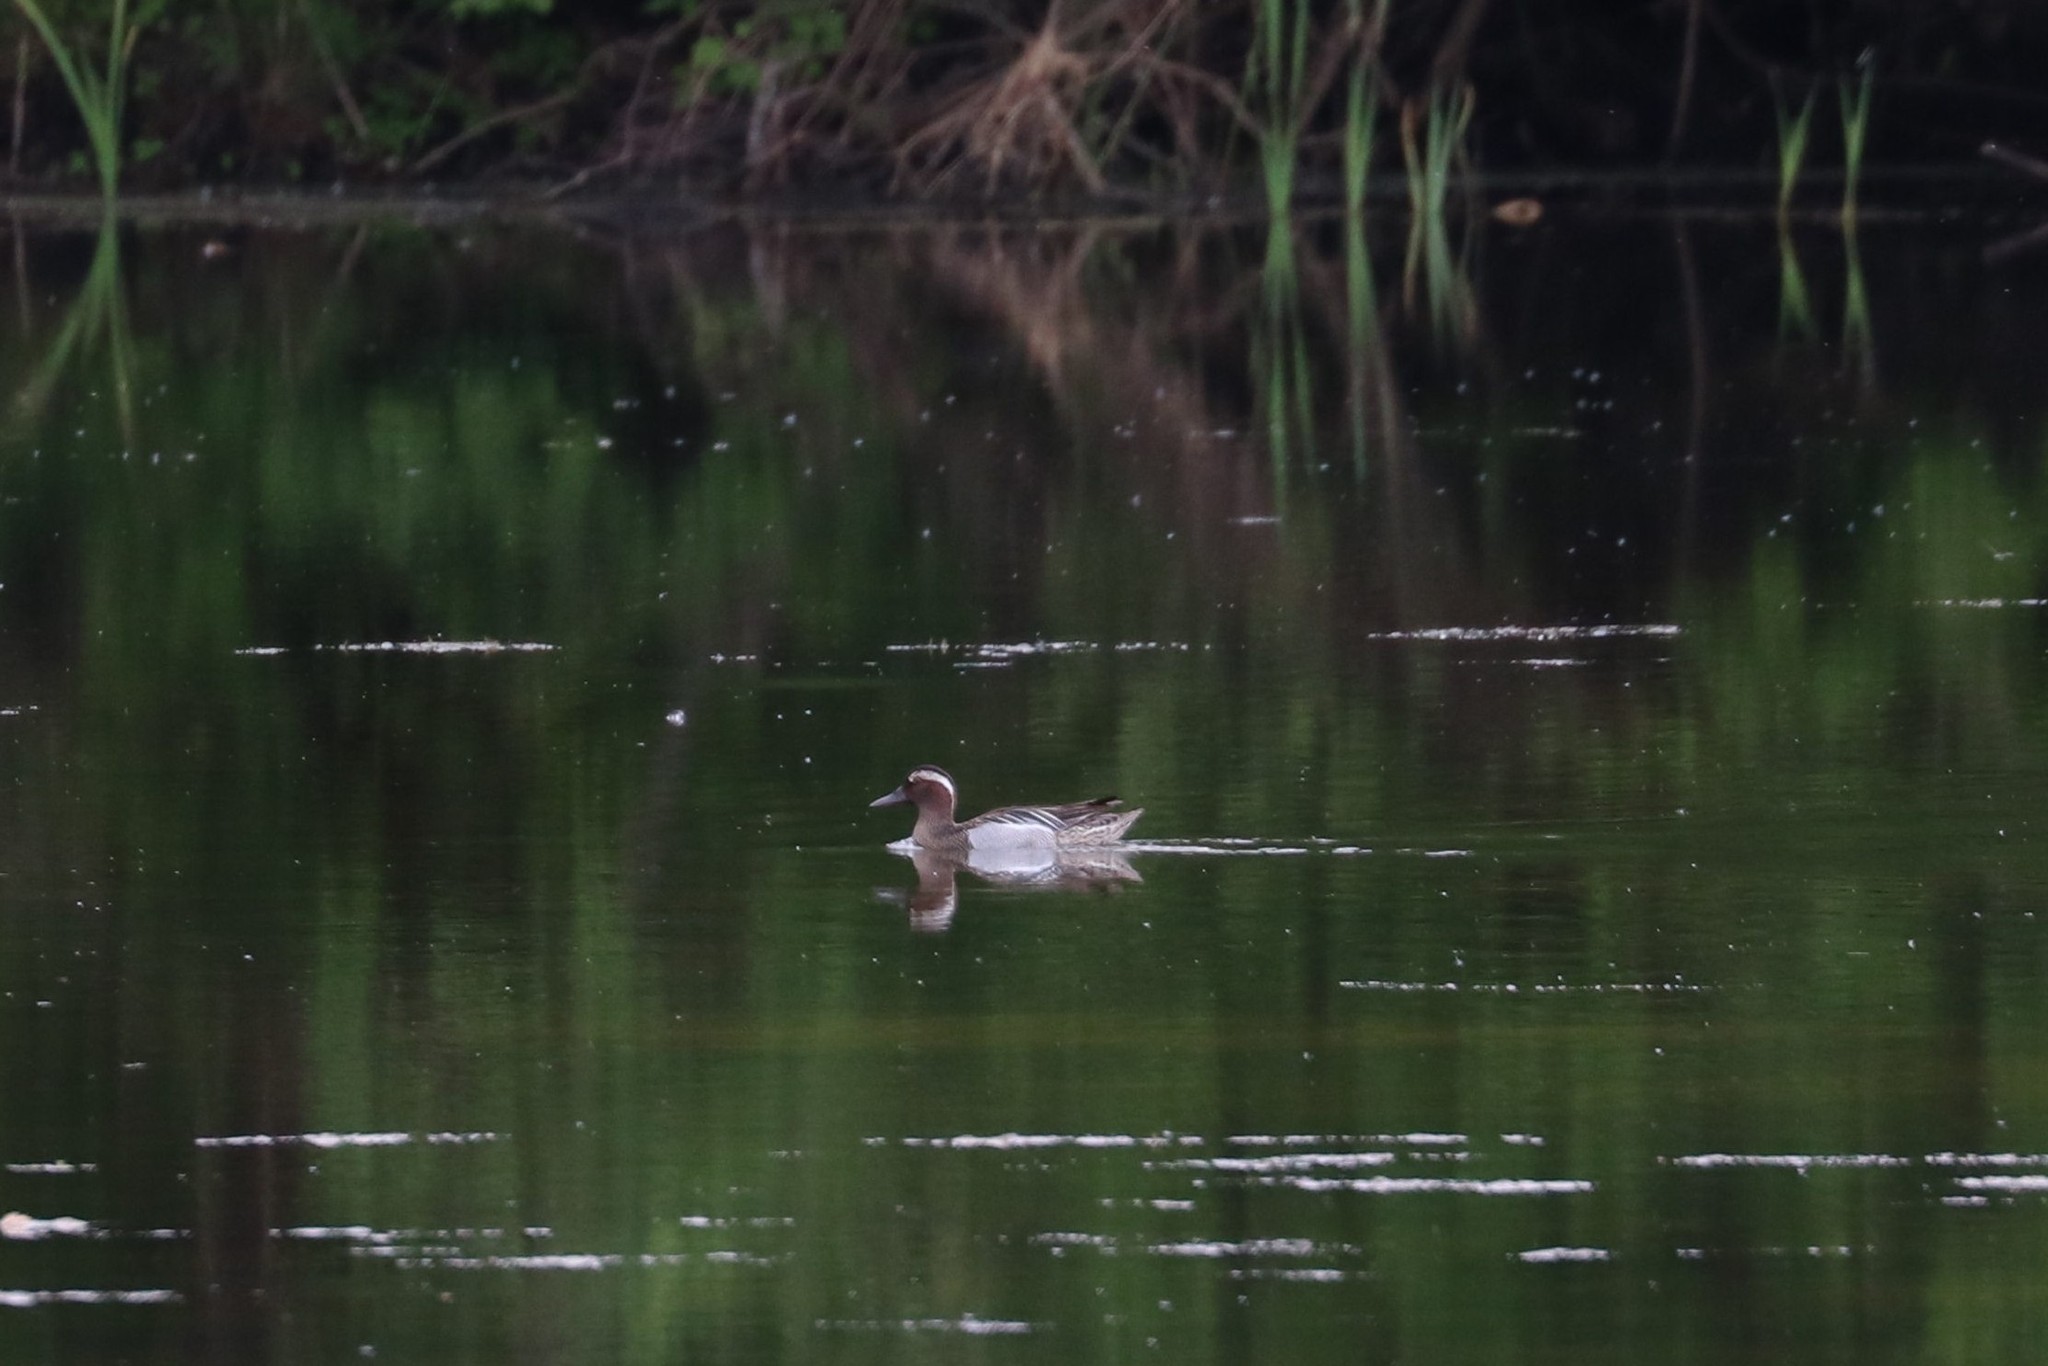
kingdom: Animalia
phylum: Chordata
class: Aves
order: Anseriformes
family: Anatidae
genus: Spatula
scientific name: Spatula querquedula
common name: Garganey
